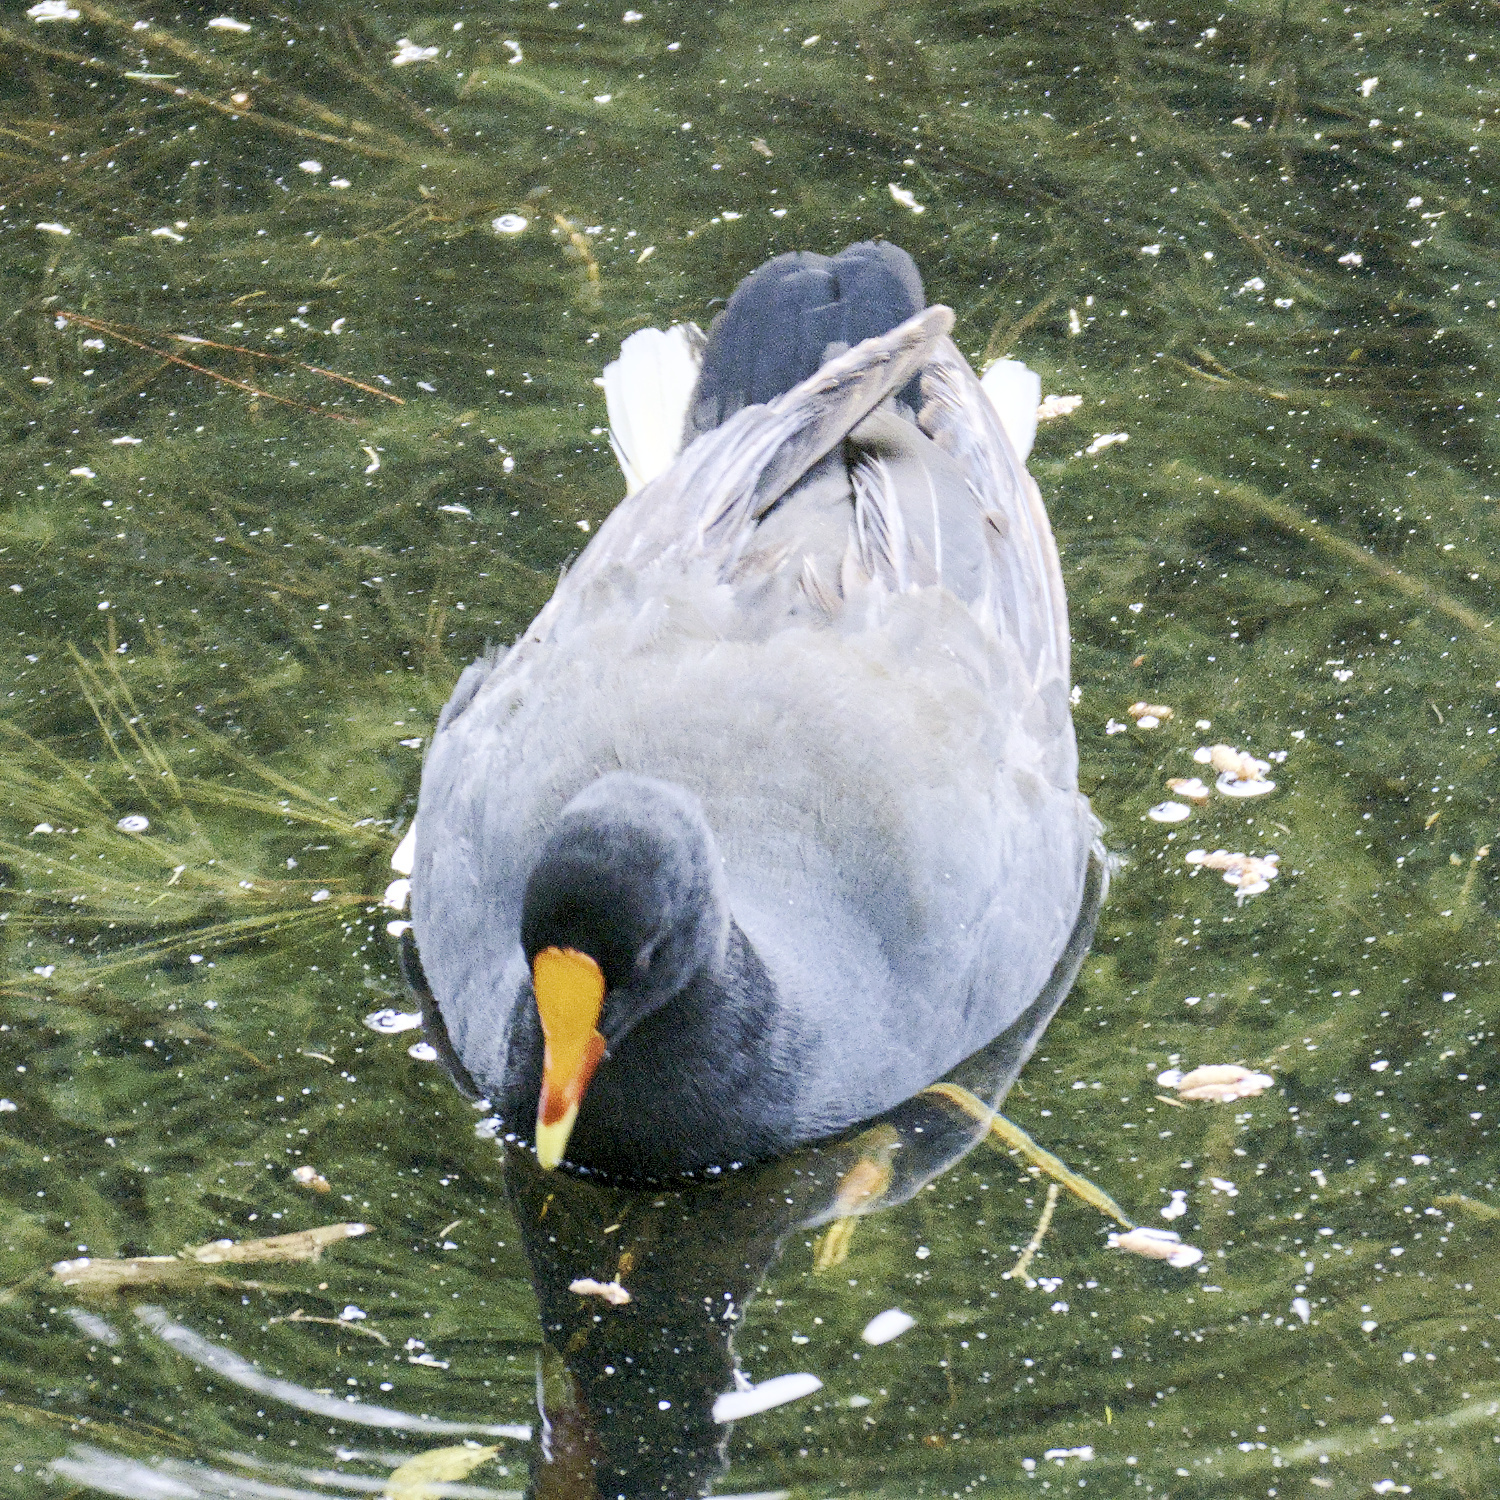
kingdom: Animalia
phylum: Chordata
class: Aves
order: Gruiformes
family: Rallidae
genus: Gallinula
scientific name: Gallinula tenebrosa
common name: Dusky moorhen
